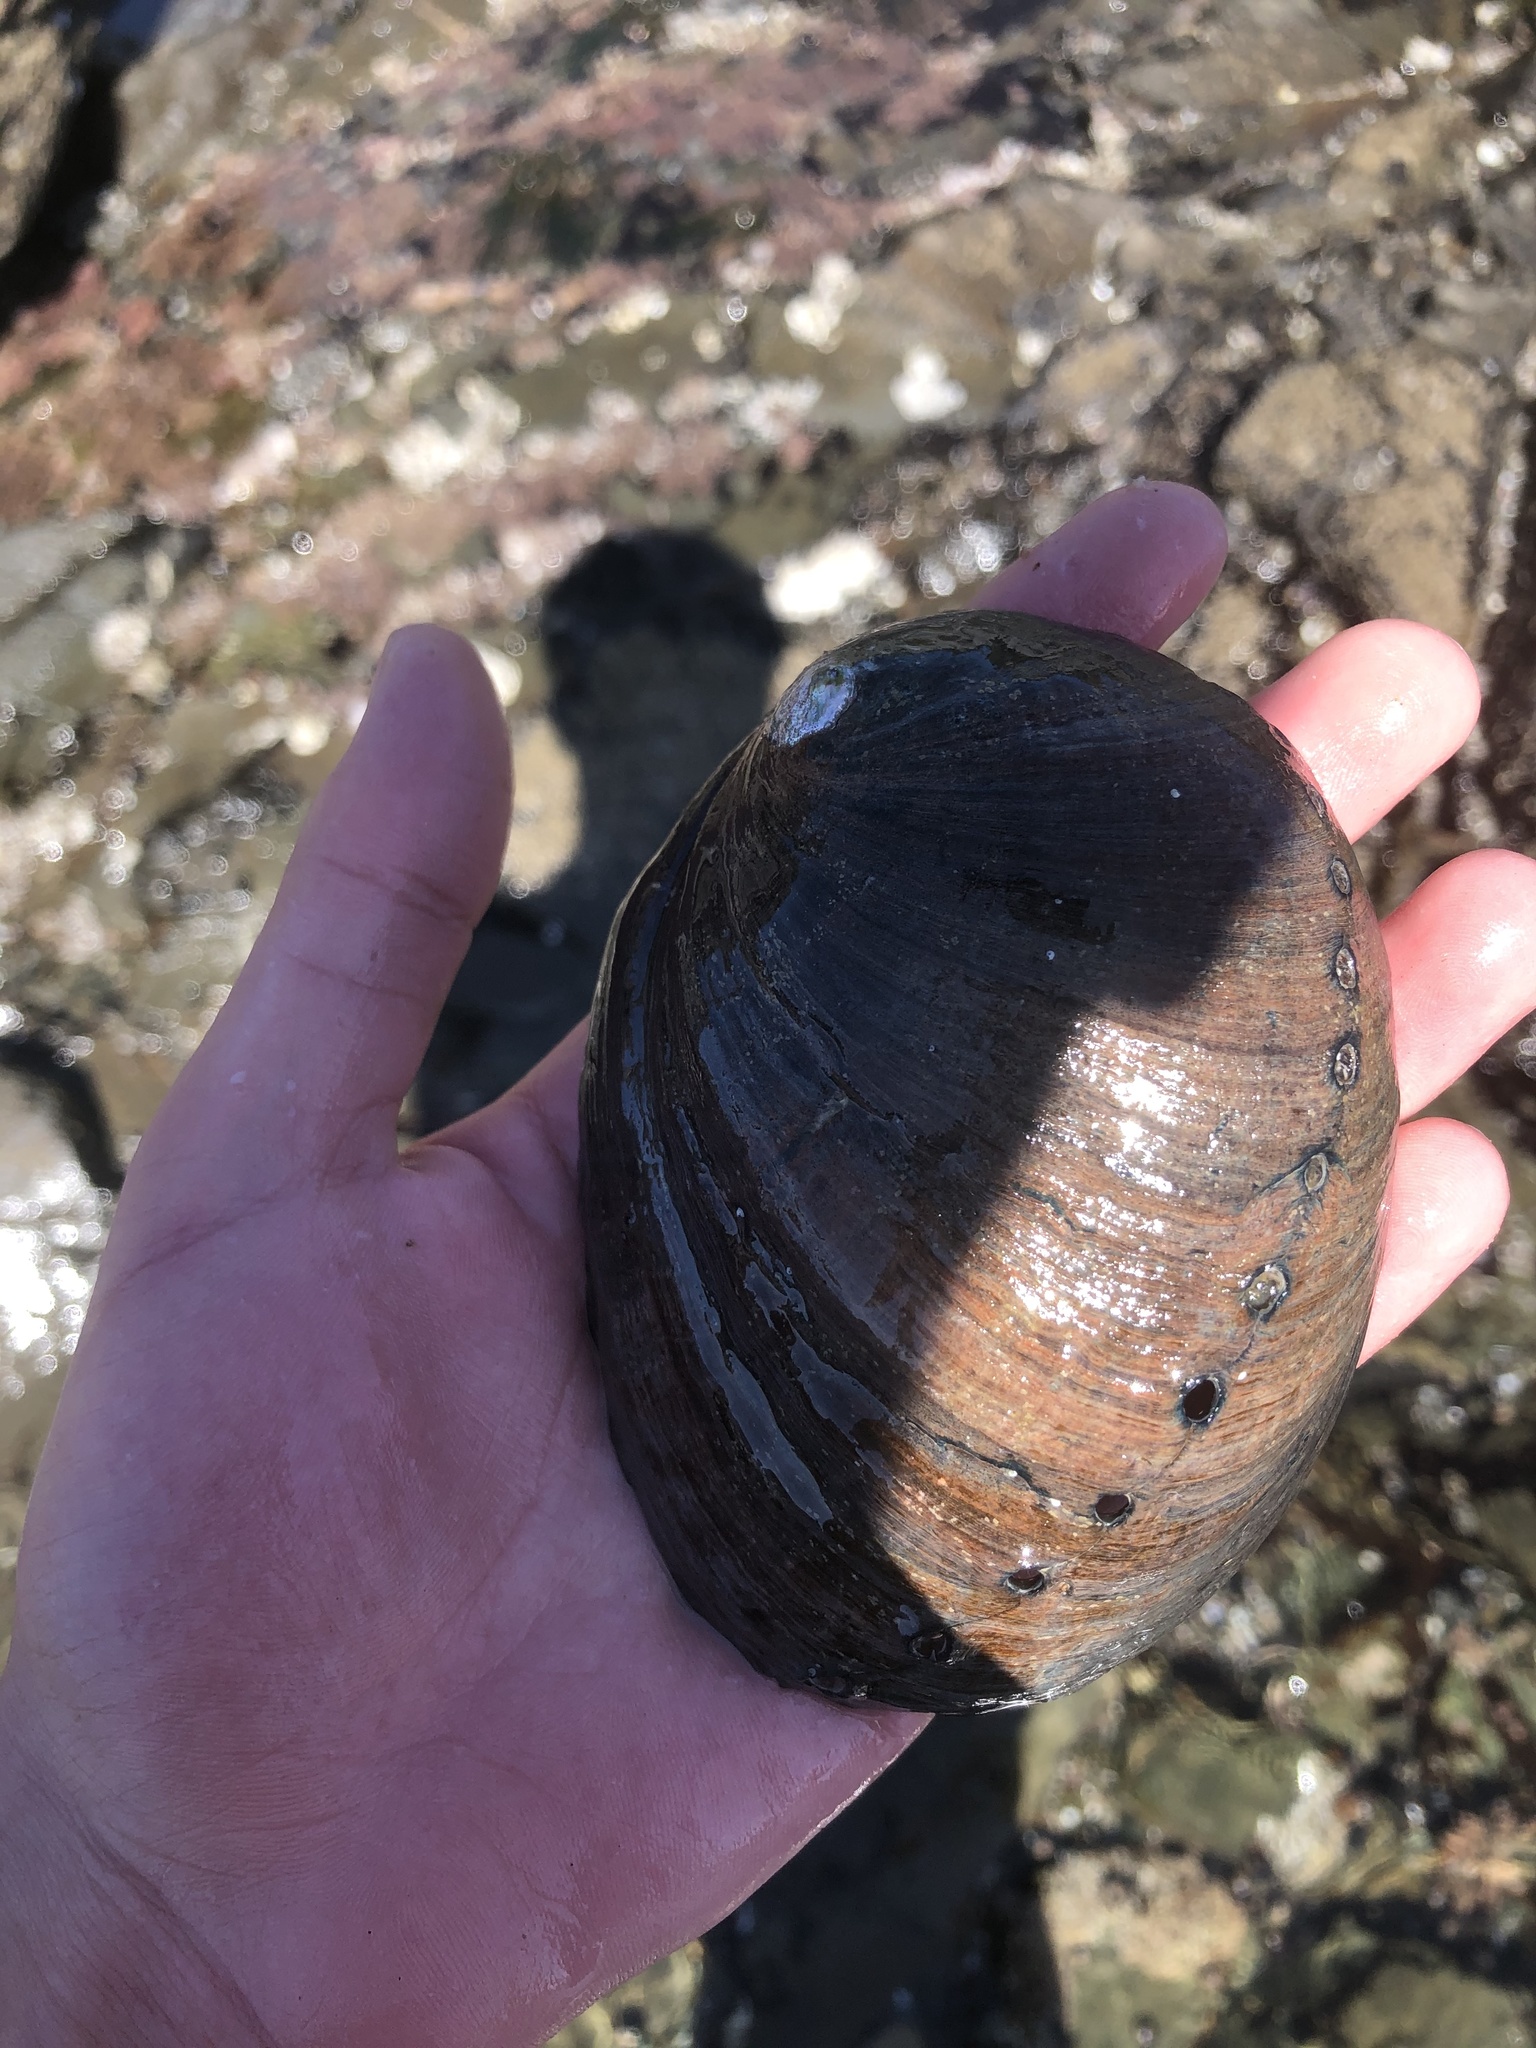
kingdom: Animalia
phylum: Mollusca
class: Gastropoda
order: Lepetellida
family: Haliotidae
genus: Haliotis
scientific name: Haliotis cracherodii
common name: Black abalone
